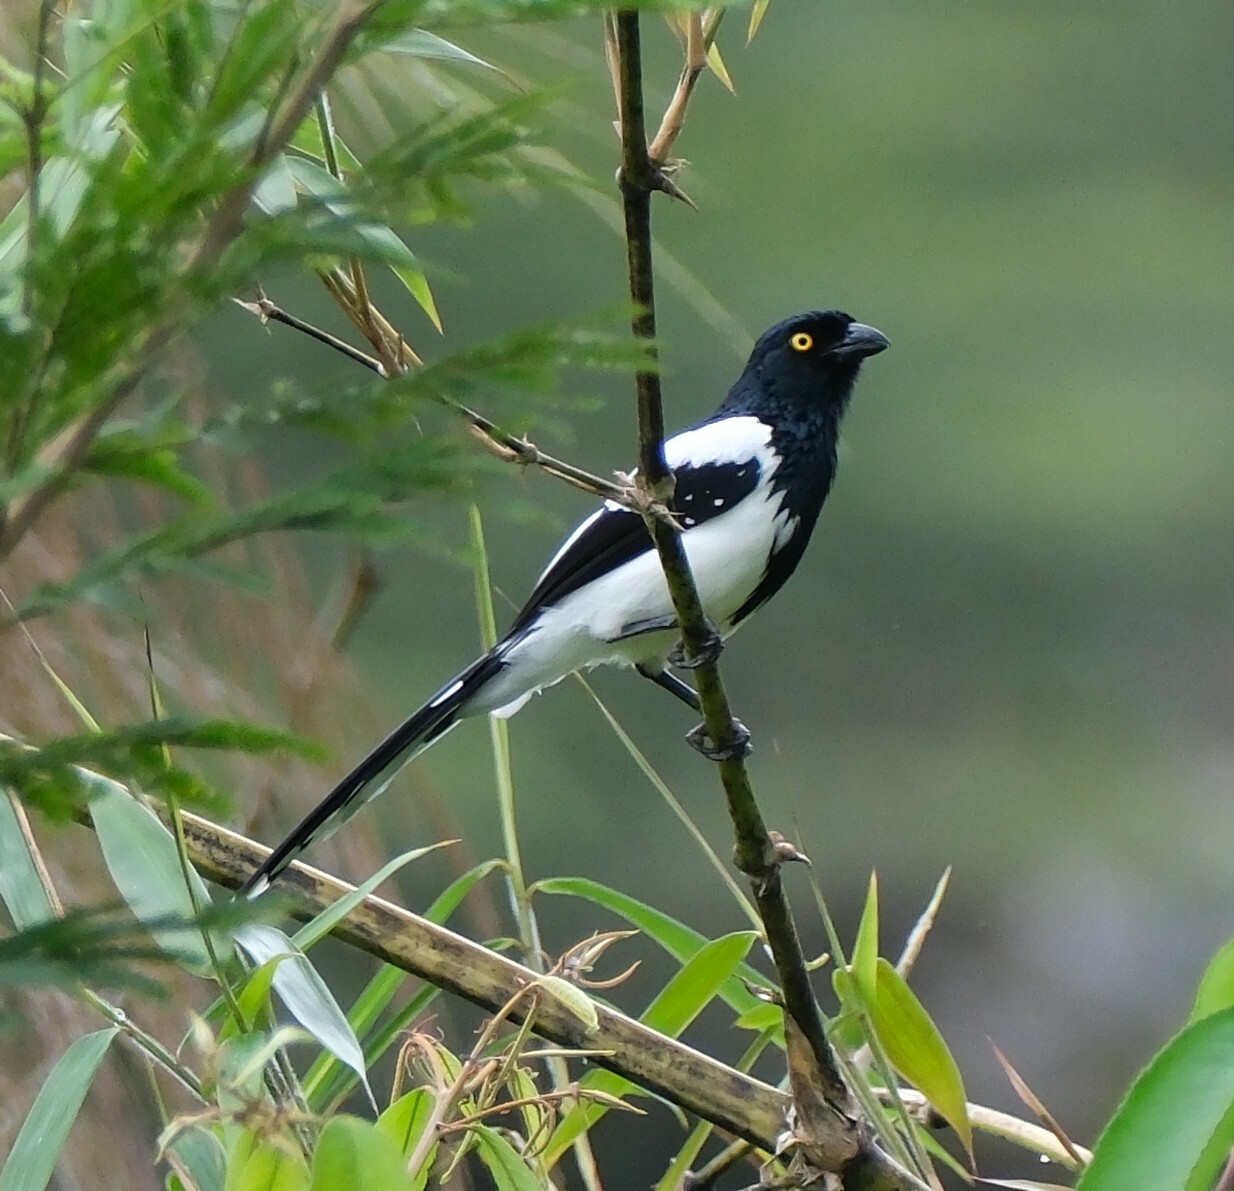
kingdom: Animalia
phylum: Chordata
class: Aves
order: Passeriformes
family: Thraupidae
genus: Cissopis
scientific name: Cissopis leverianus
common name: Magpie tanager
